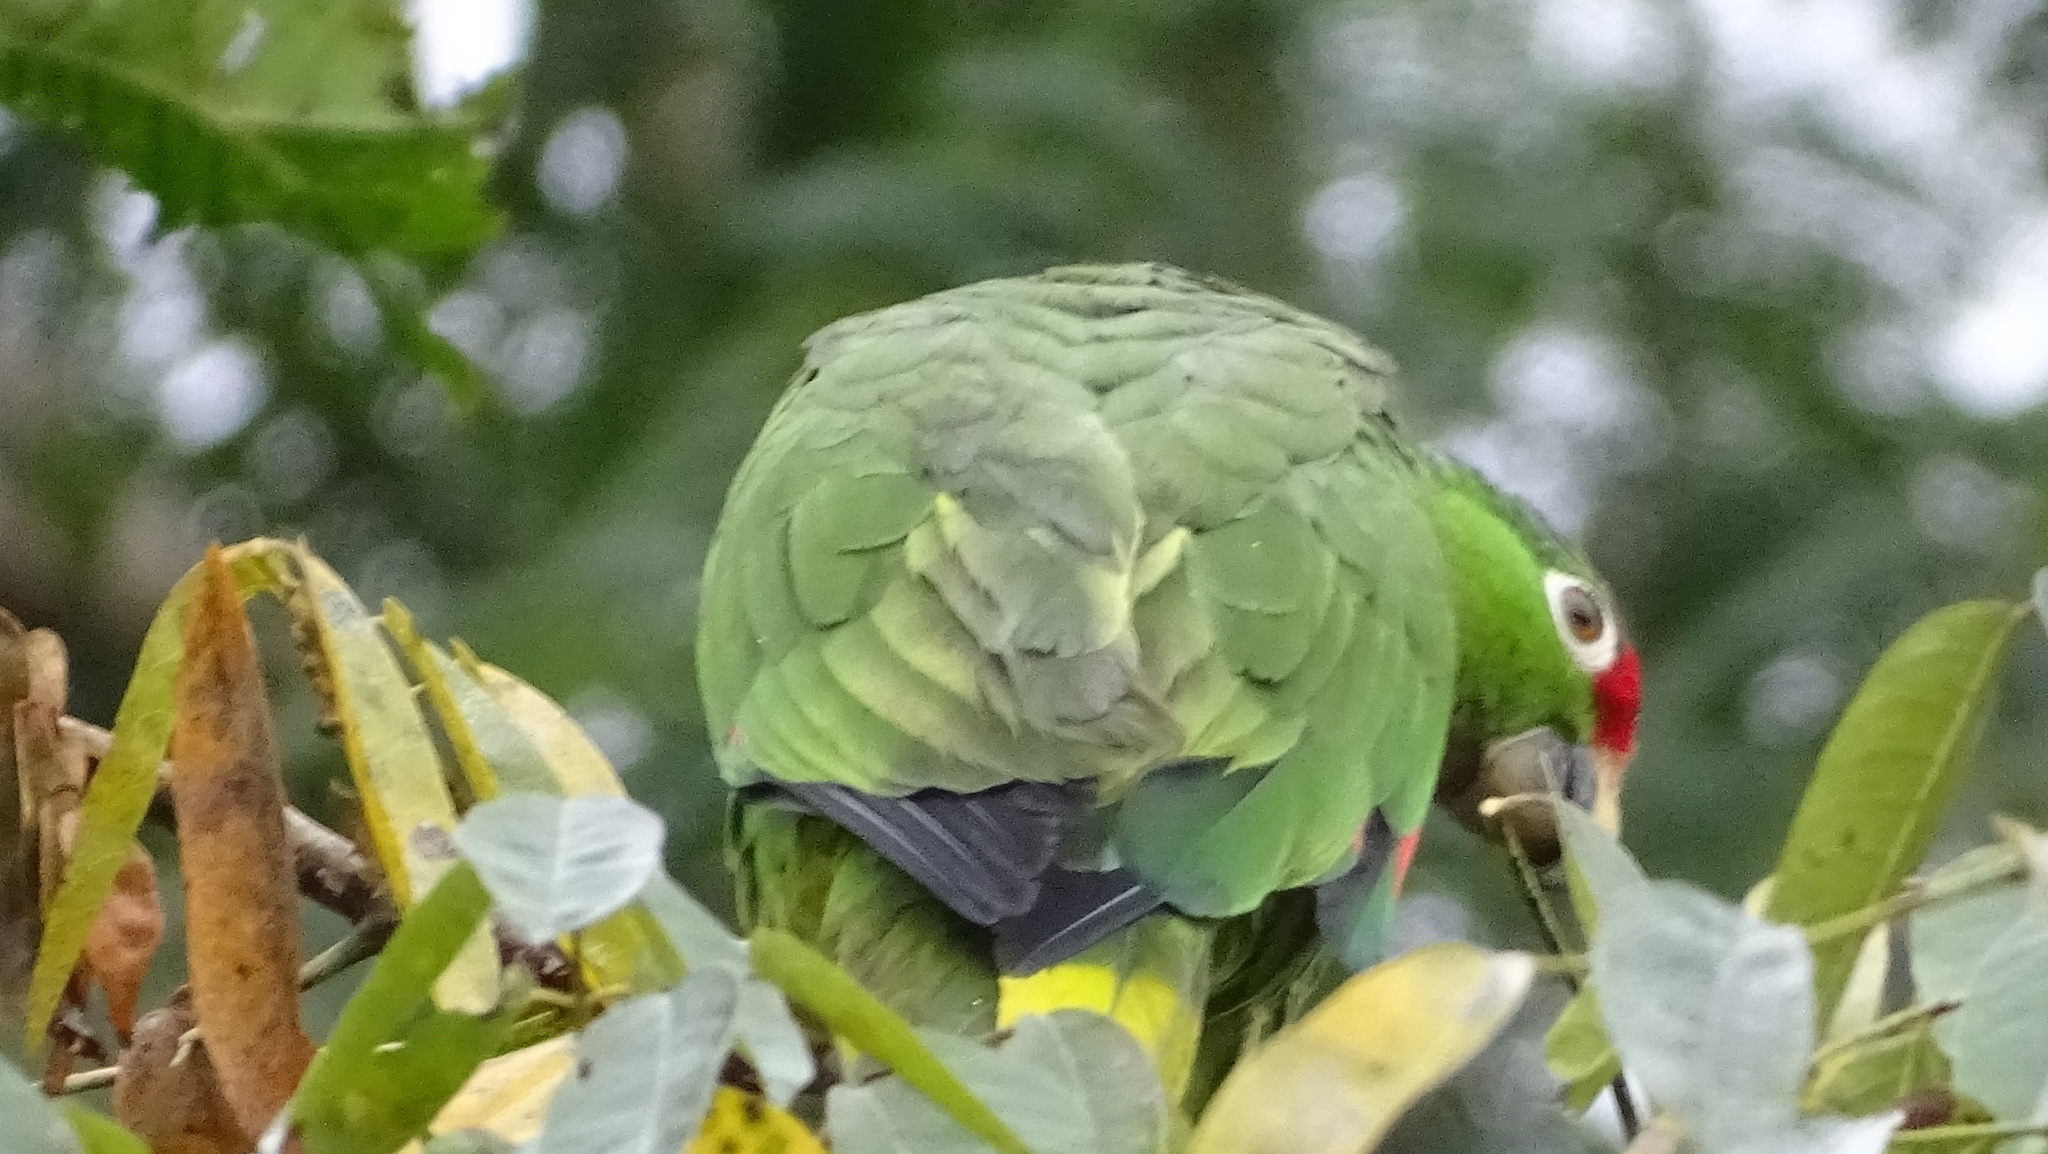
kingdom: Animalia
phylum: Chordata
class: Aves
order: Psittaciformes
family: Psittacidae
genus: Amazona
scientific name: Amazona autumnalis
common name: Red-lored amazon
